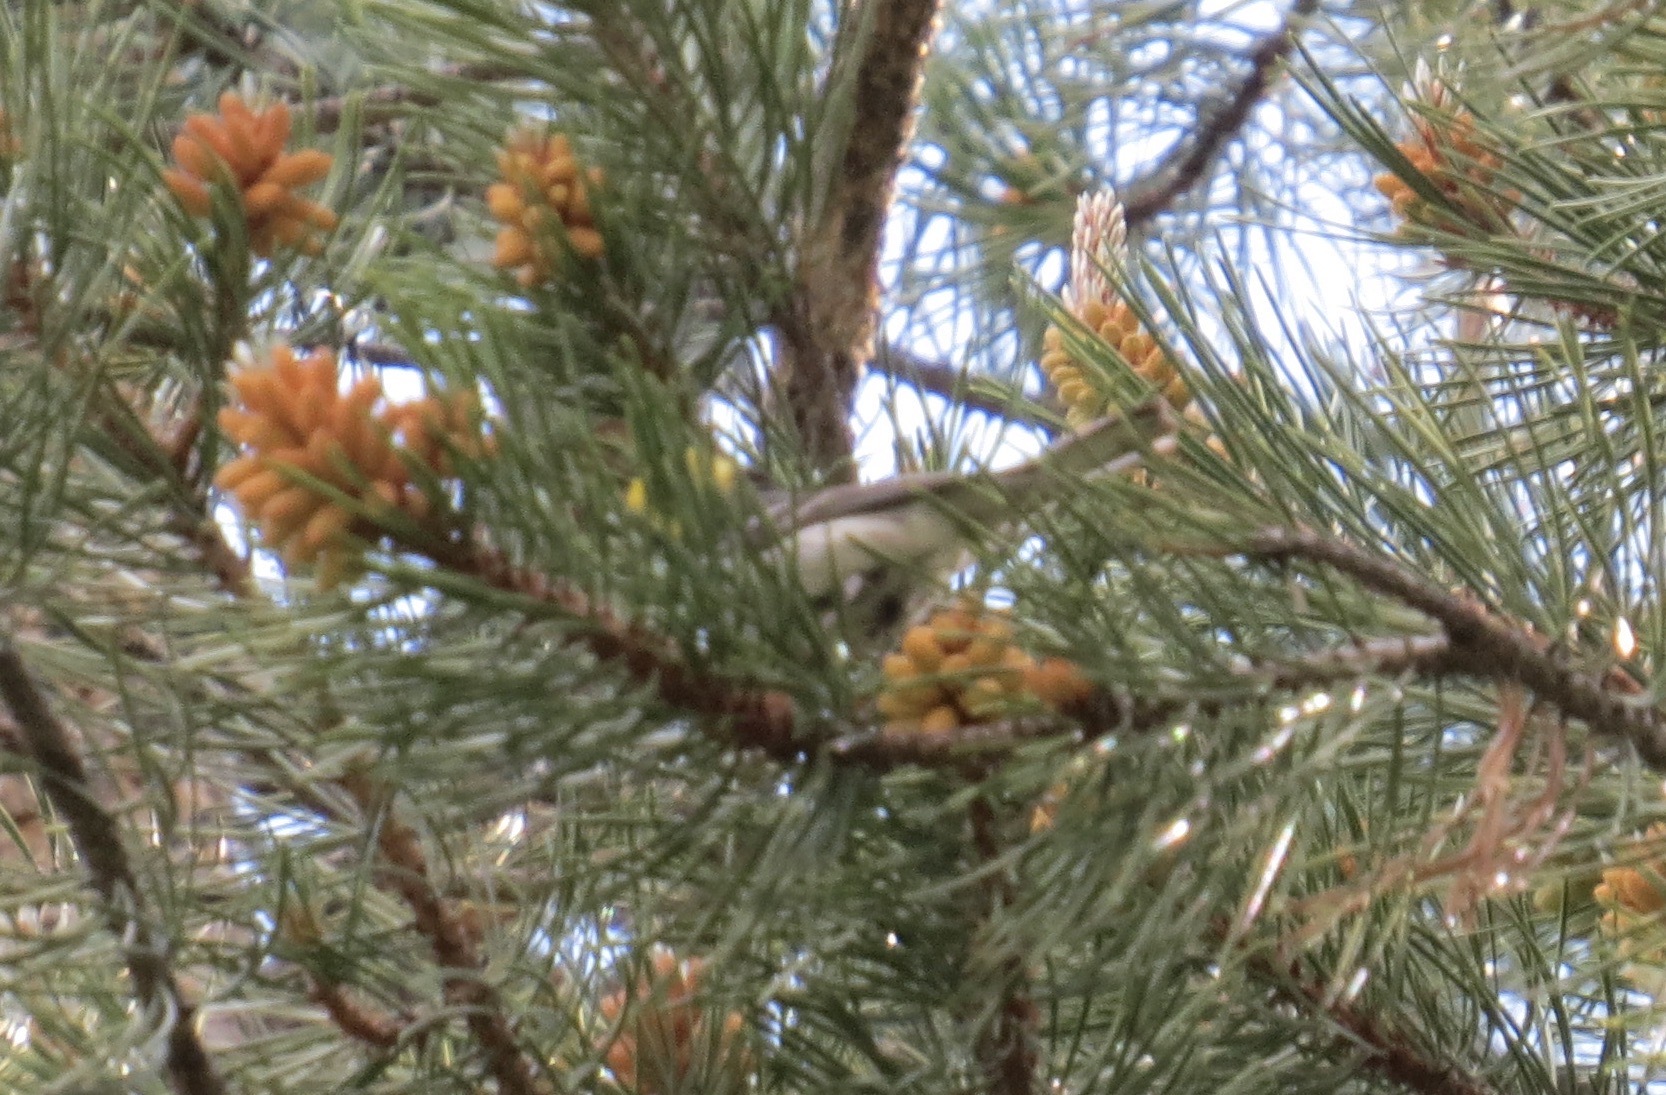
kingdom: Animalia
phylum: Chordata
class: Aves
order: Passeriformes
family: Parulidae
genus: Setophaga
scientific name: Setophaga occidentalis
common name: Hermit warbler
